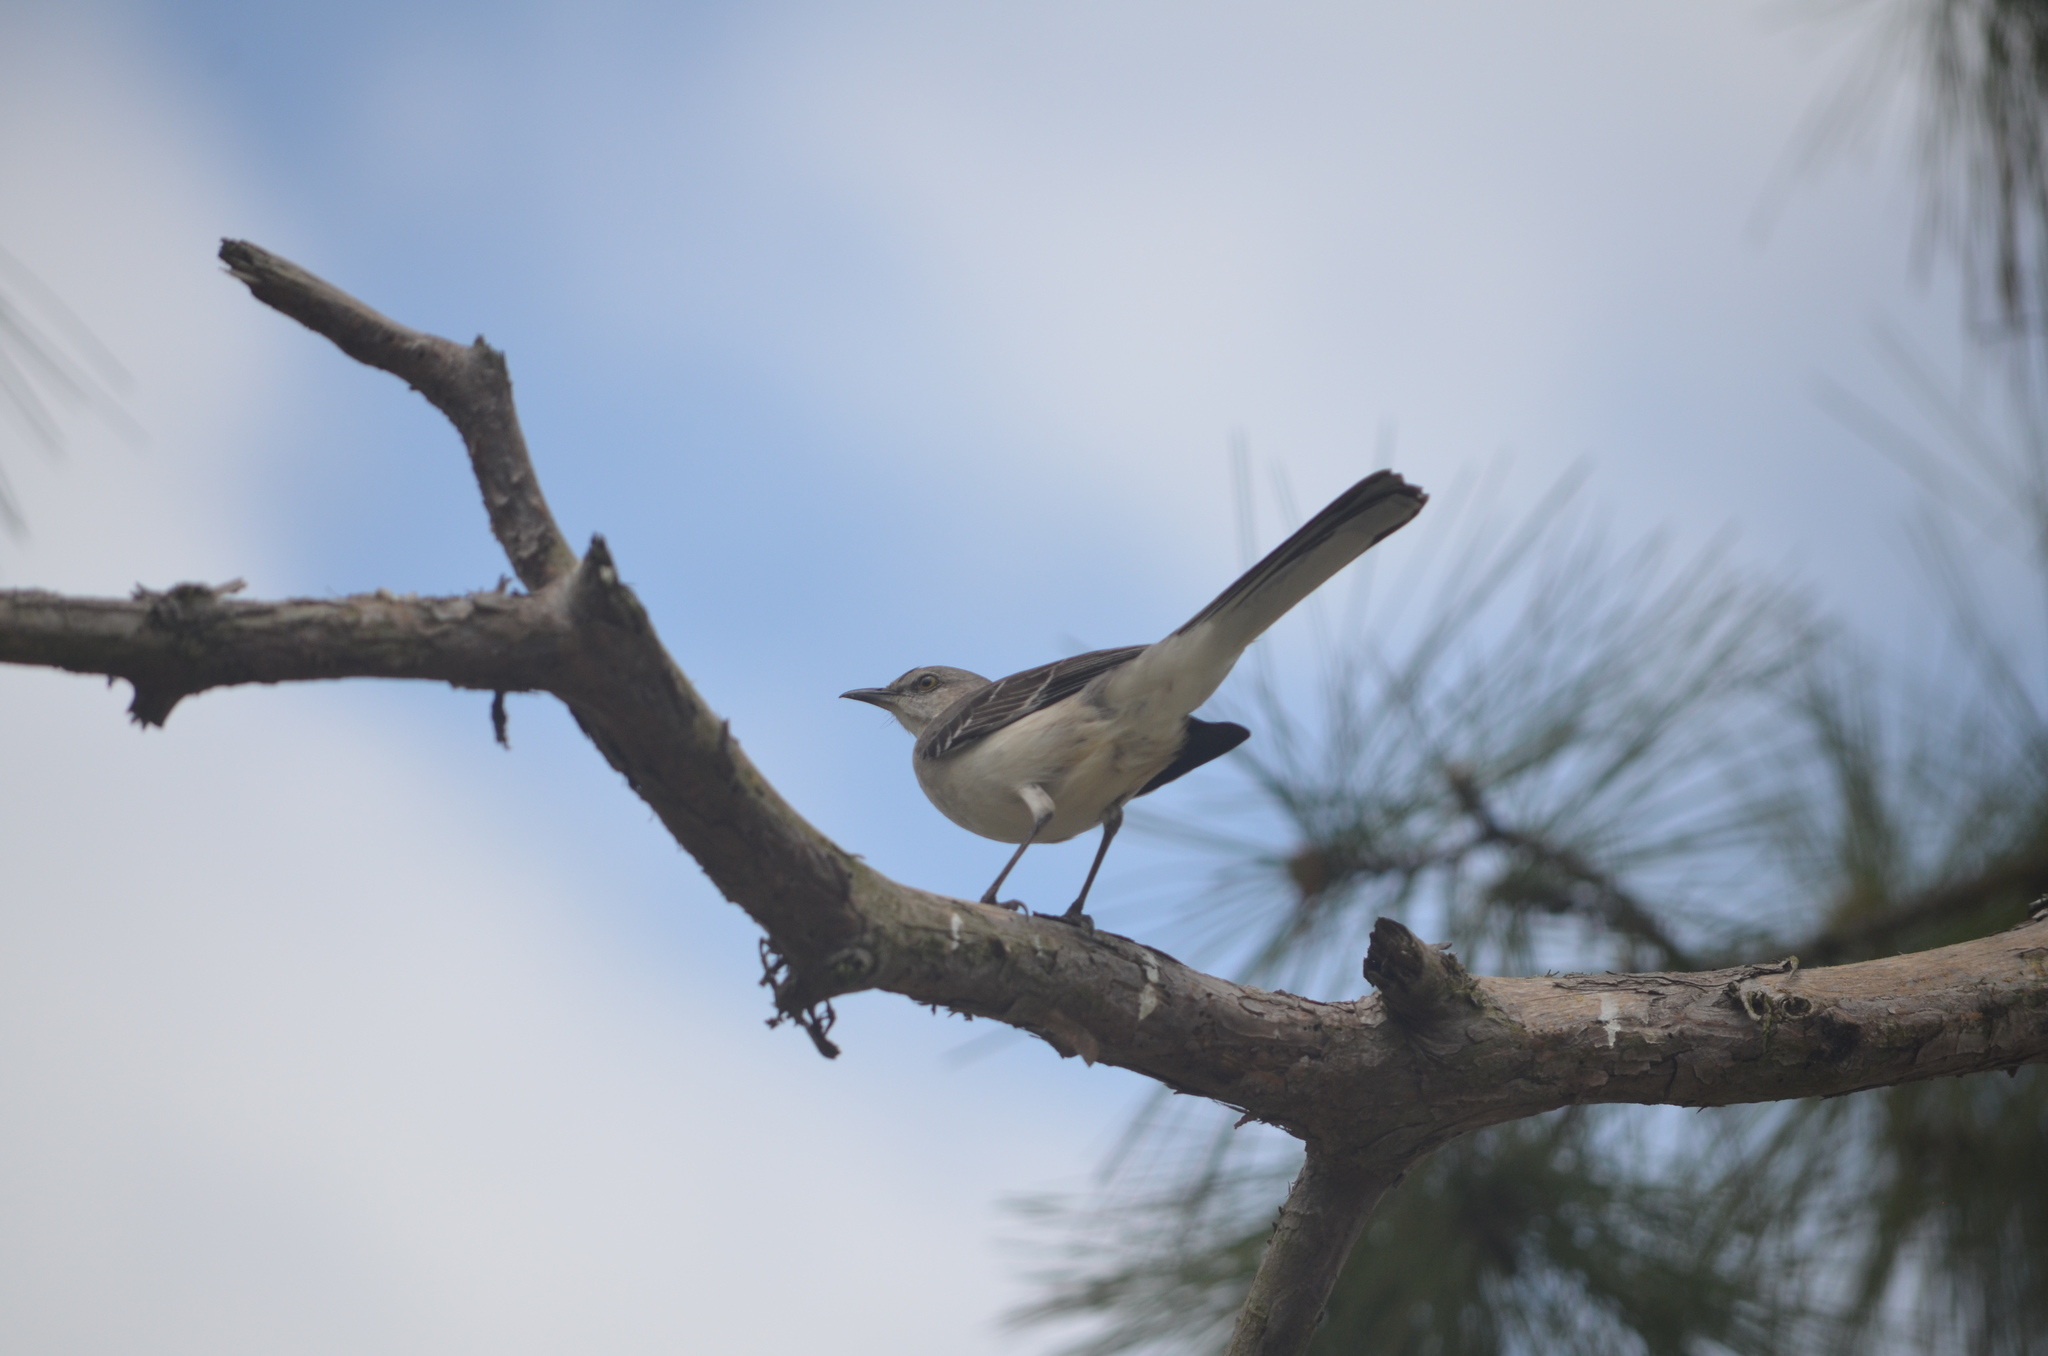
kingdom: Animalia
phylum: Chordata
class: Aves
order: Passeriformes
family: Mimidae
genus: Mimus
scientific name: Mimus polyglottos
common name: Northern mockingbird
